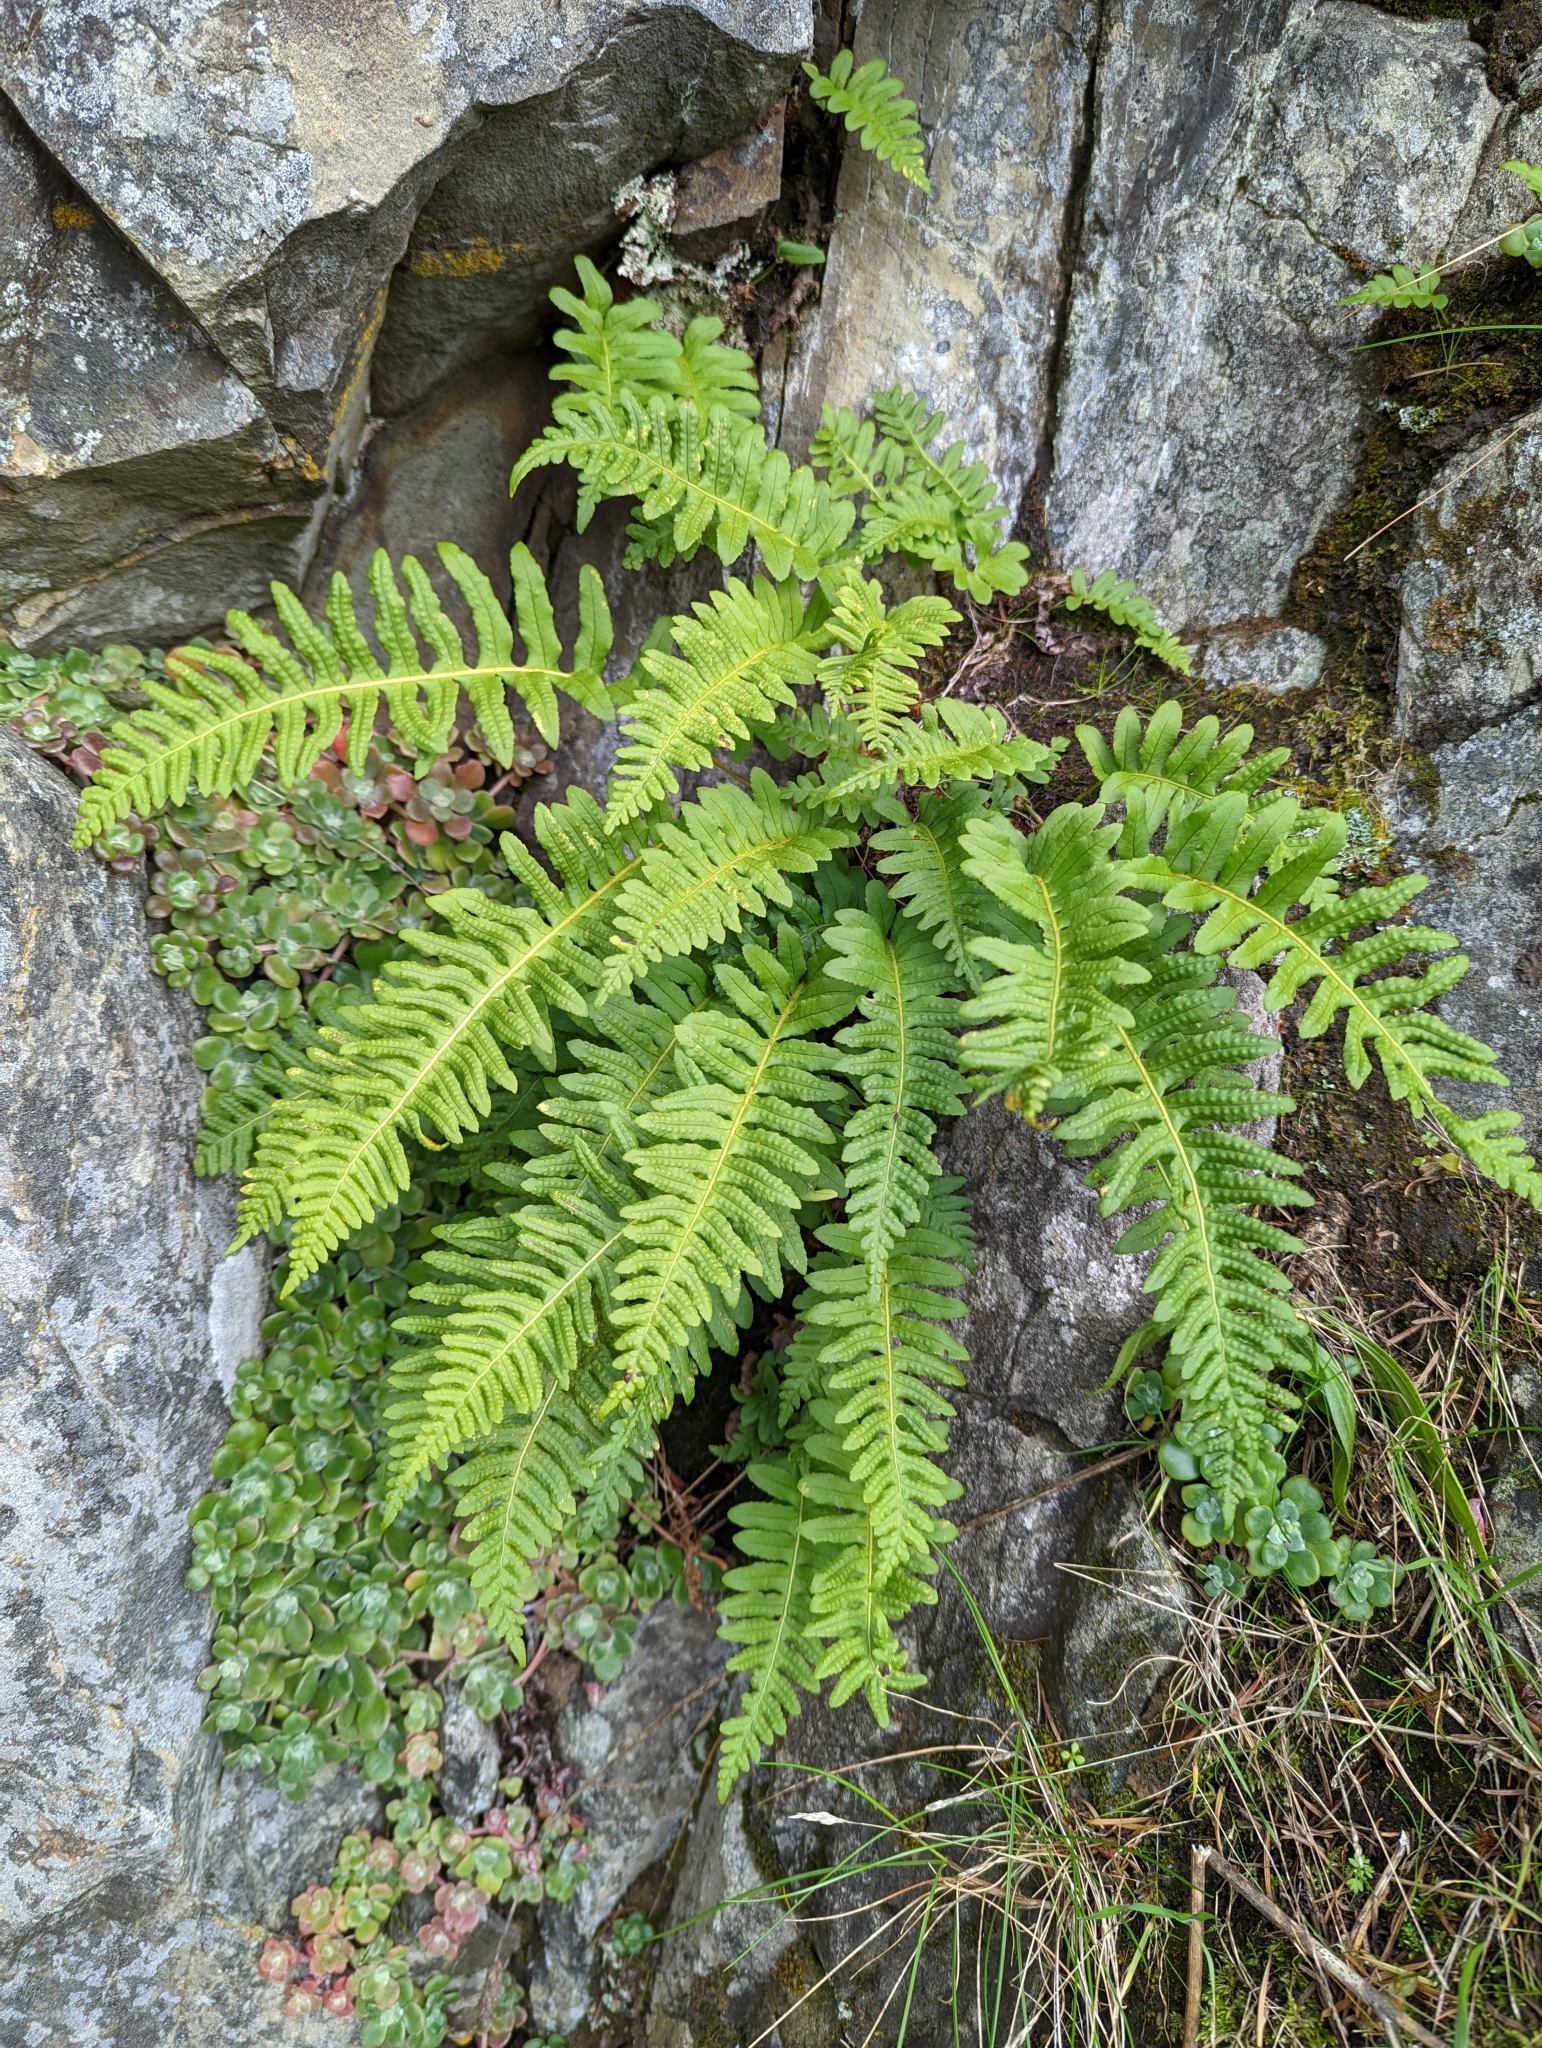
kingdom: Plantae
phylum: Tracheophyta
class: Polypodiopsida
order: Polypodiales
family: Polypodiaceae
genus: Polypodium
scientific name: Polypodium glycyrrhiza
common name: Licorice fern
